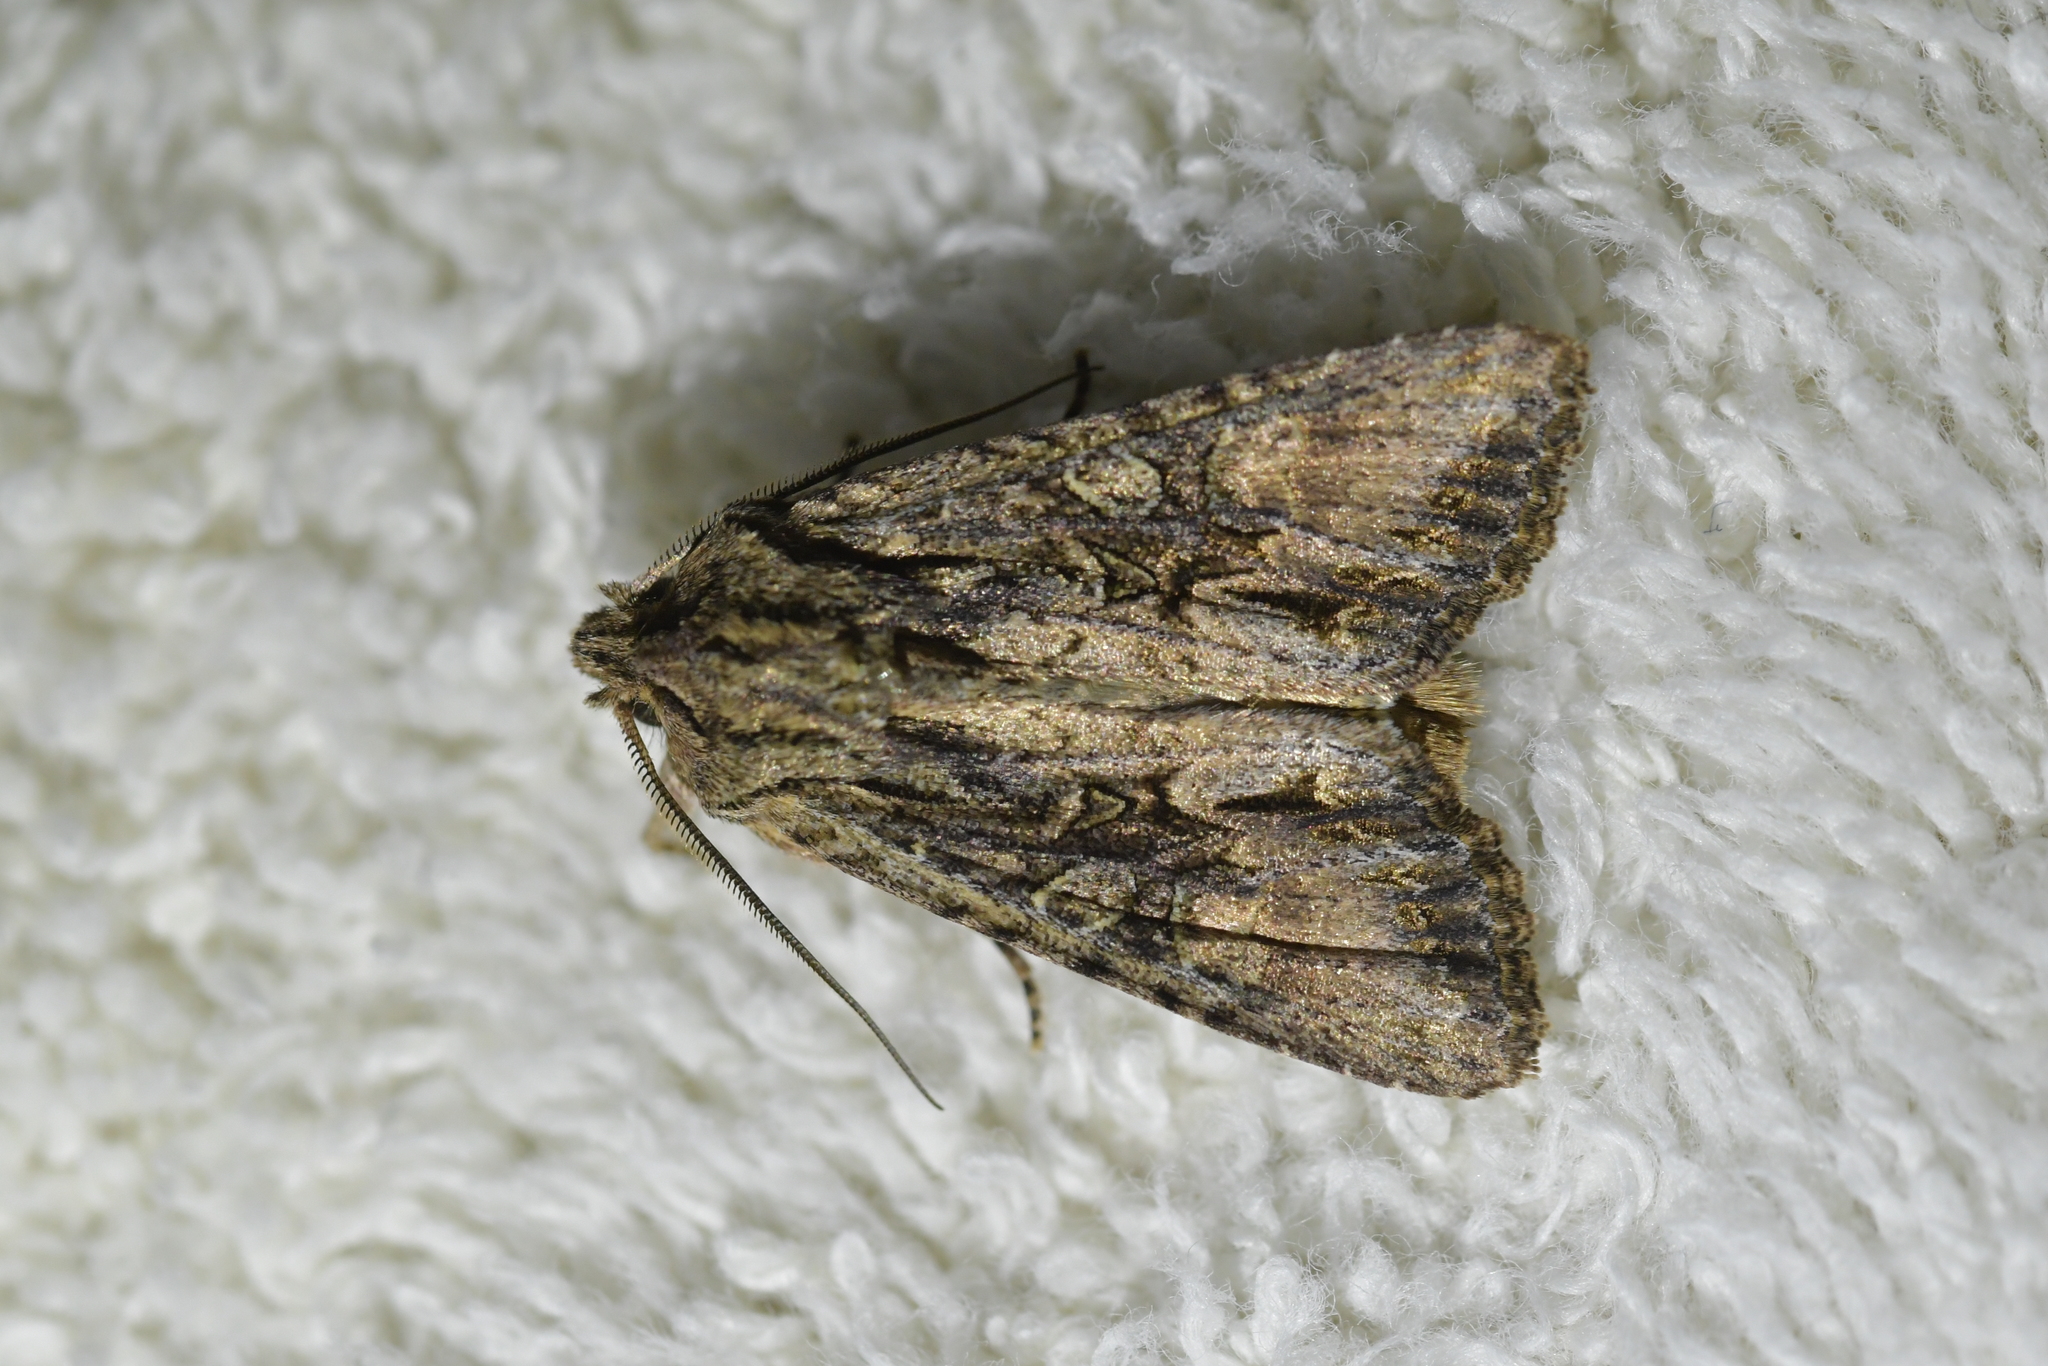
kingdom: Animalia
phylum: Arthropoda
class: Insecta
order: Lepidoptera
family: Noctuidae
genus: Ichneutica
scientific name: Ichneutica mutans
